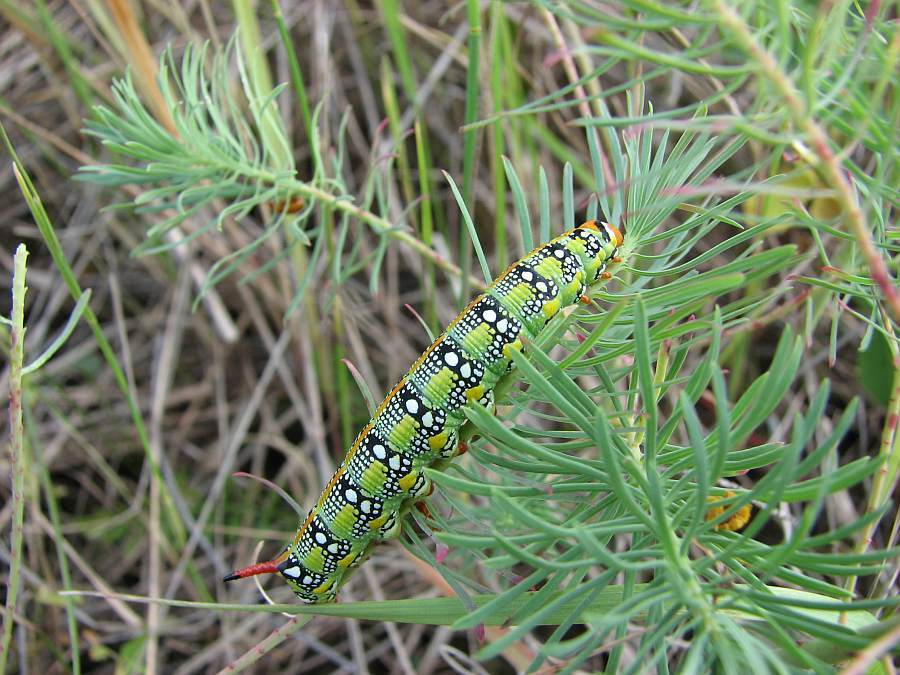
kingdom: Animalia
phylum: Arthropoda
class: Insecta
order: Lepidoptera
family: Sphingidae
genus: Hyles
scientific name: Hyles euphorbiae
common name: Spurge hawk-moth
